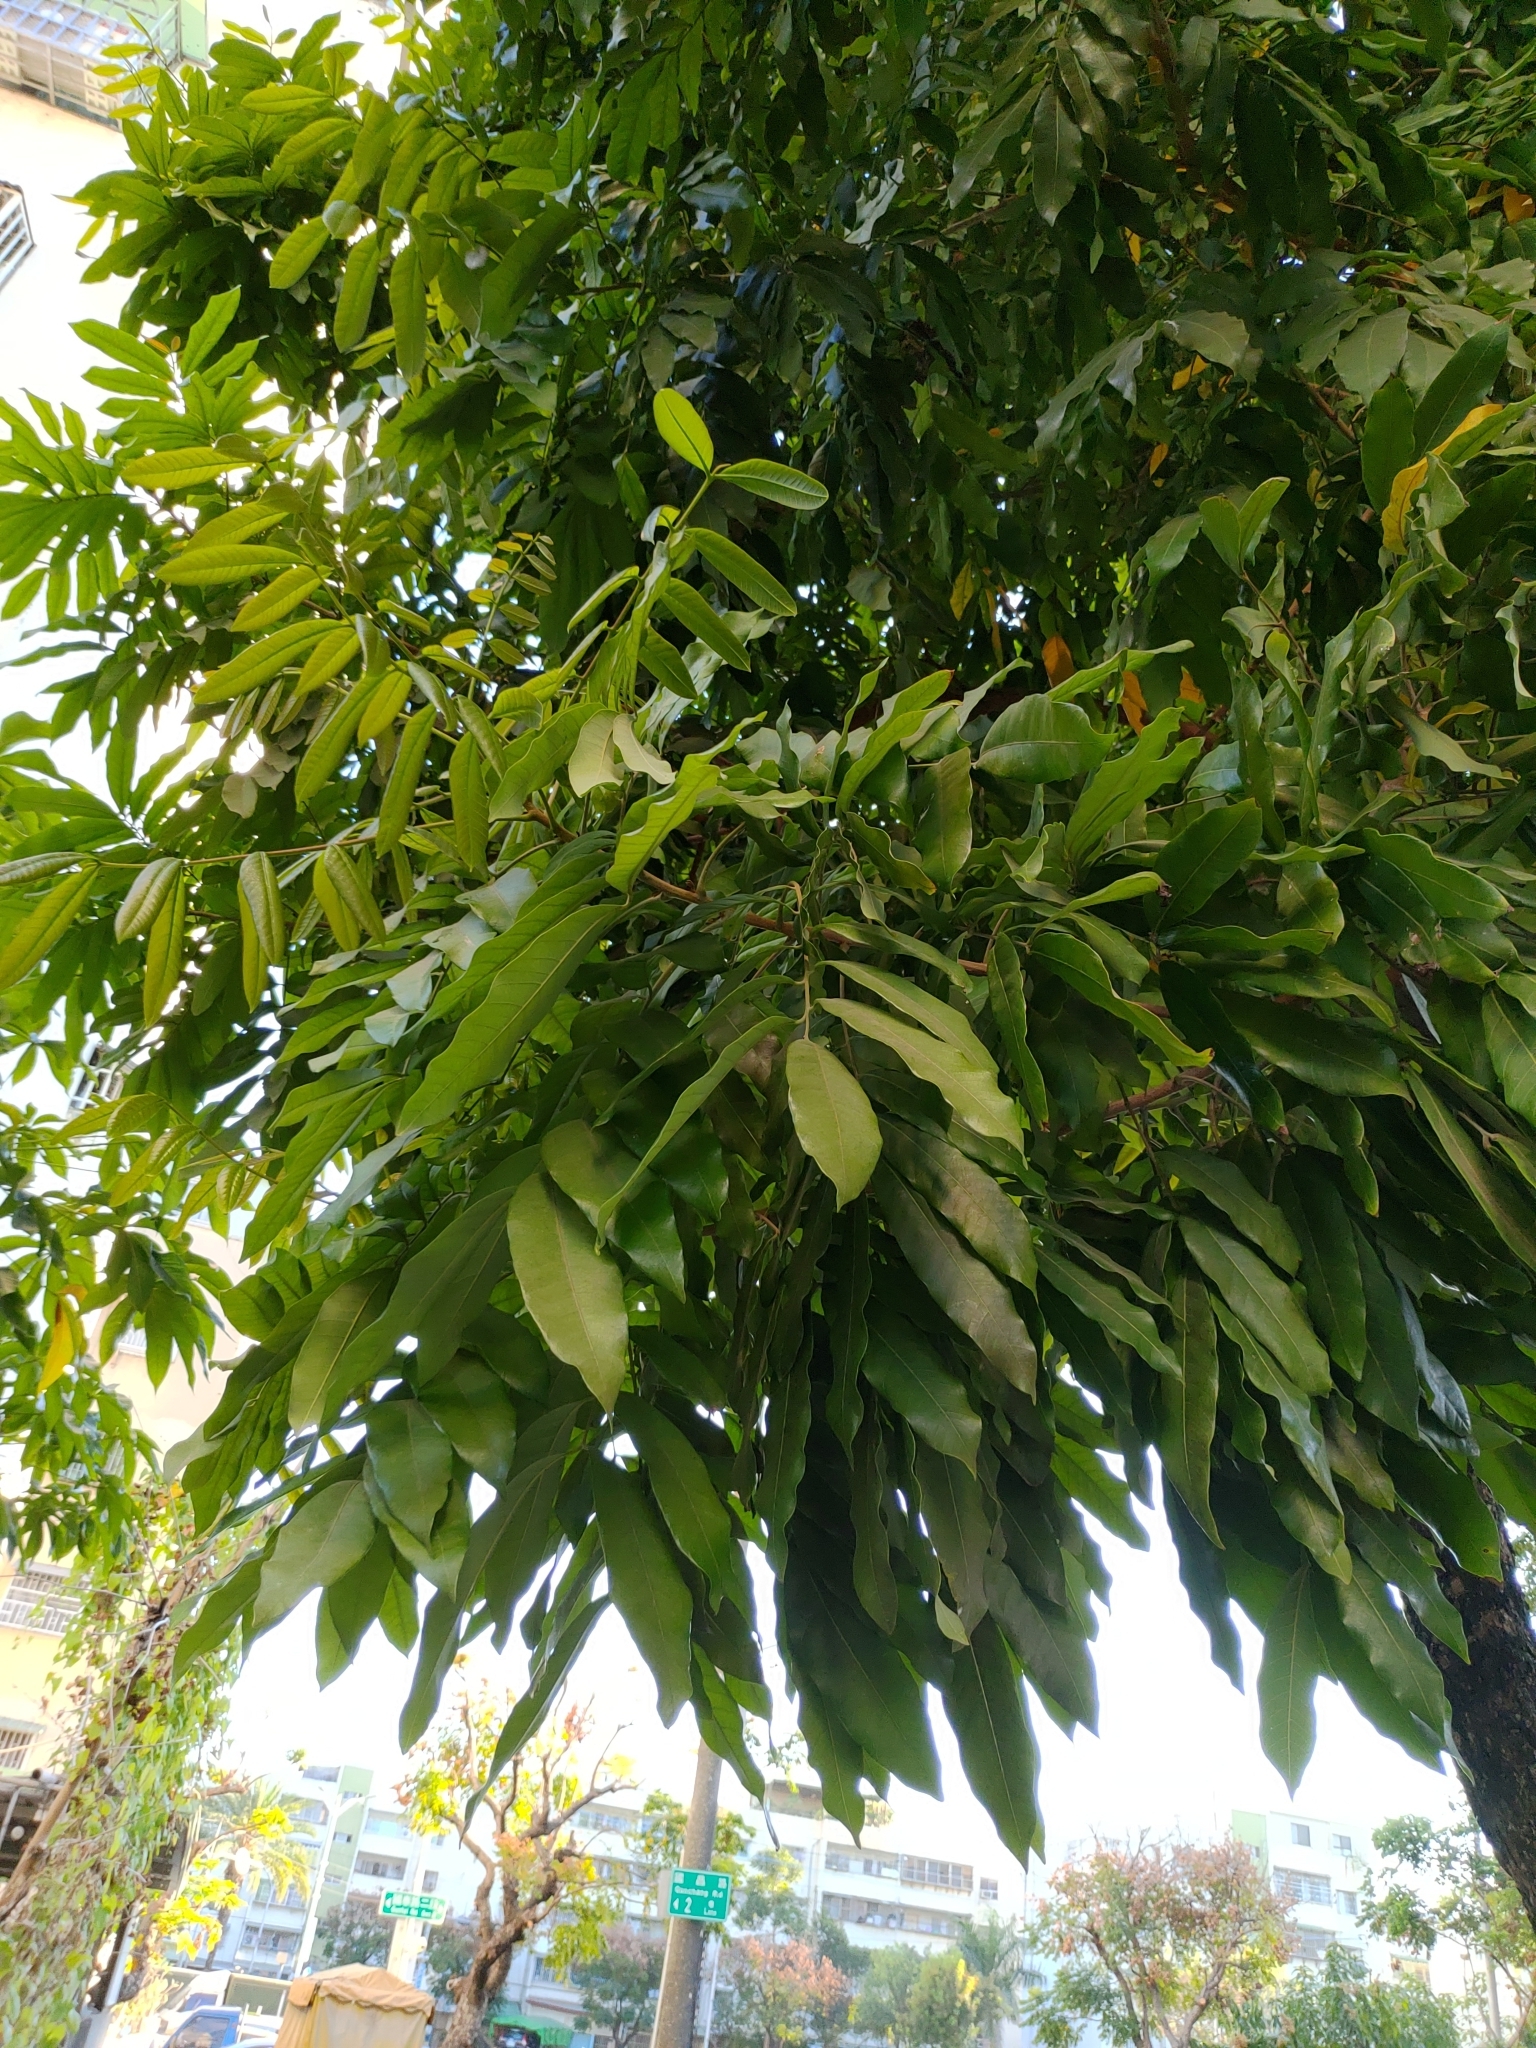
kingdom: Plantae
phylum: Tracheophyta
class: Magnoliopsida
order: Sapindales
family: Sapindaceae
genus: Dimocarpus
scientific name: Dimocarpus longan
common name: Longan
